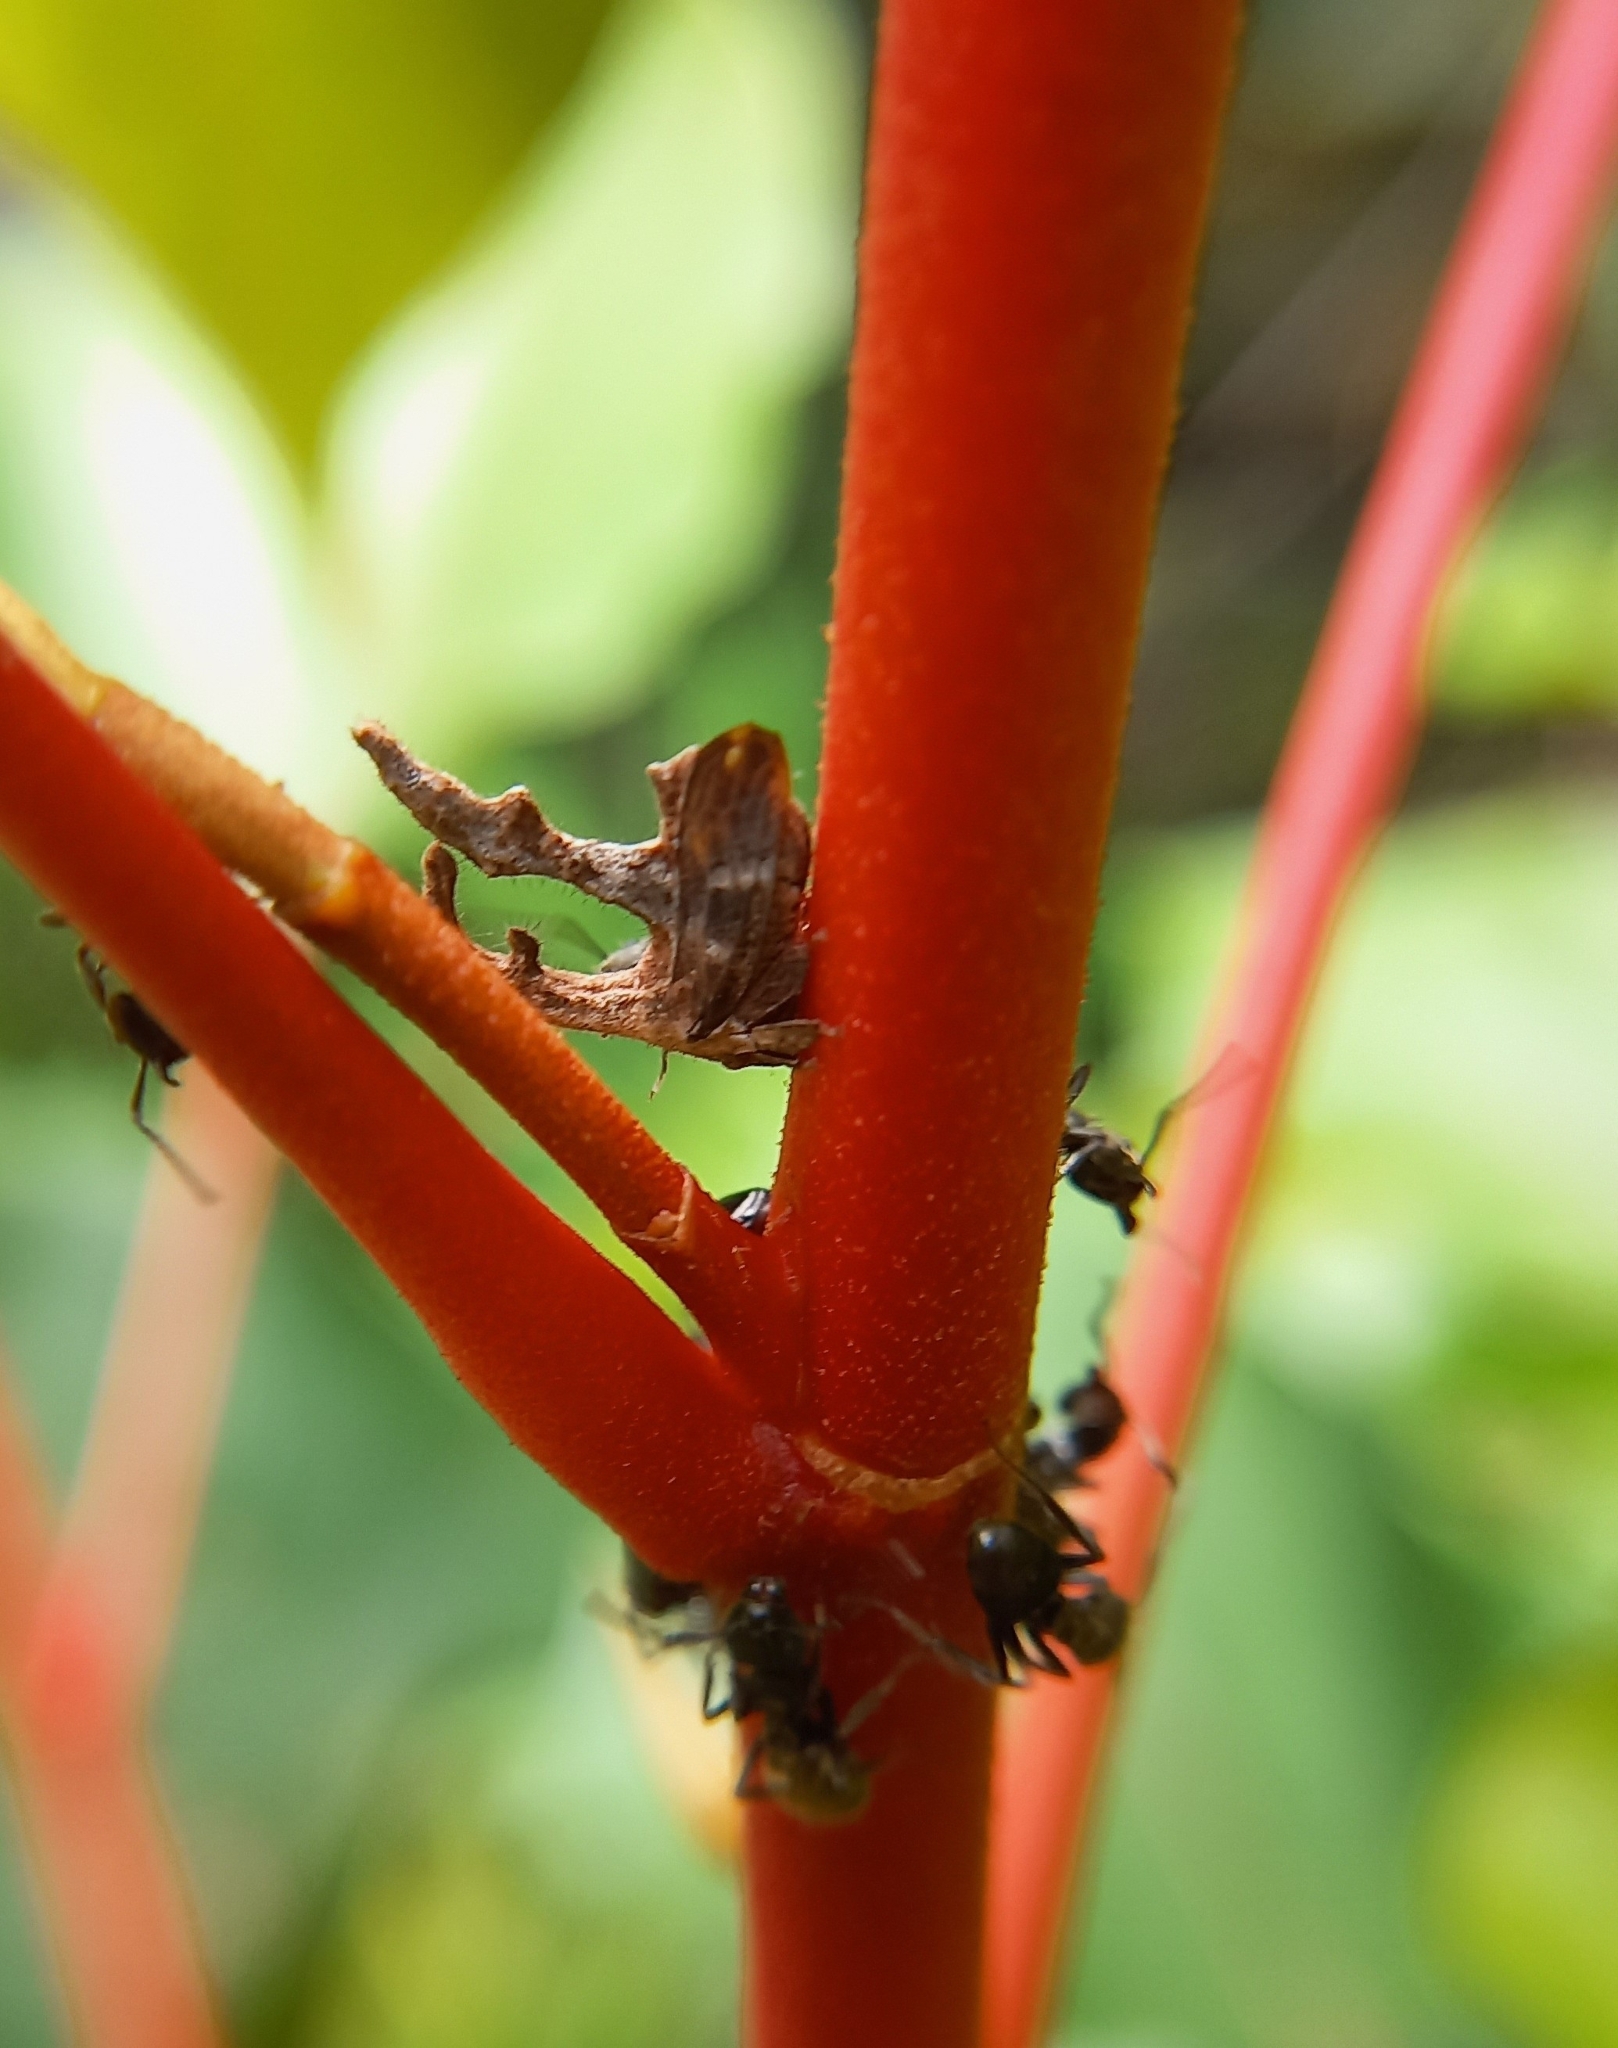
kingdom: Animalia
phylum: Arthropoda
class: Insecta
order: Hemiptera
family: Membracidae
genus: Cladonota
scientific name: Cladonota biclavatus
